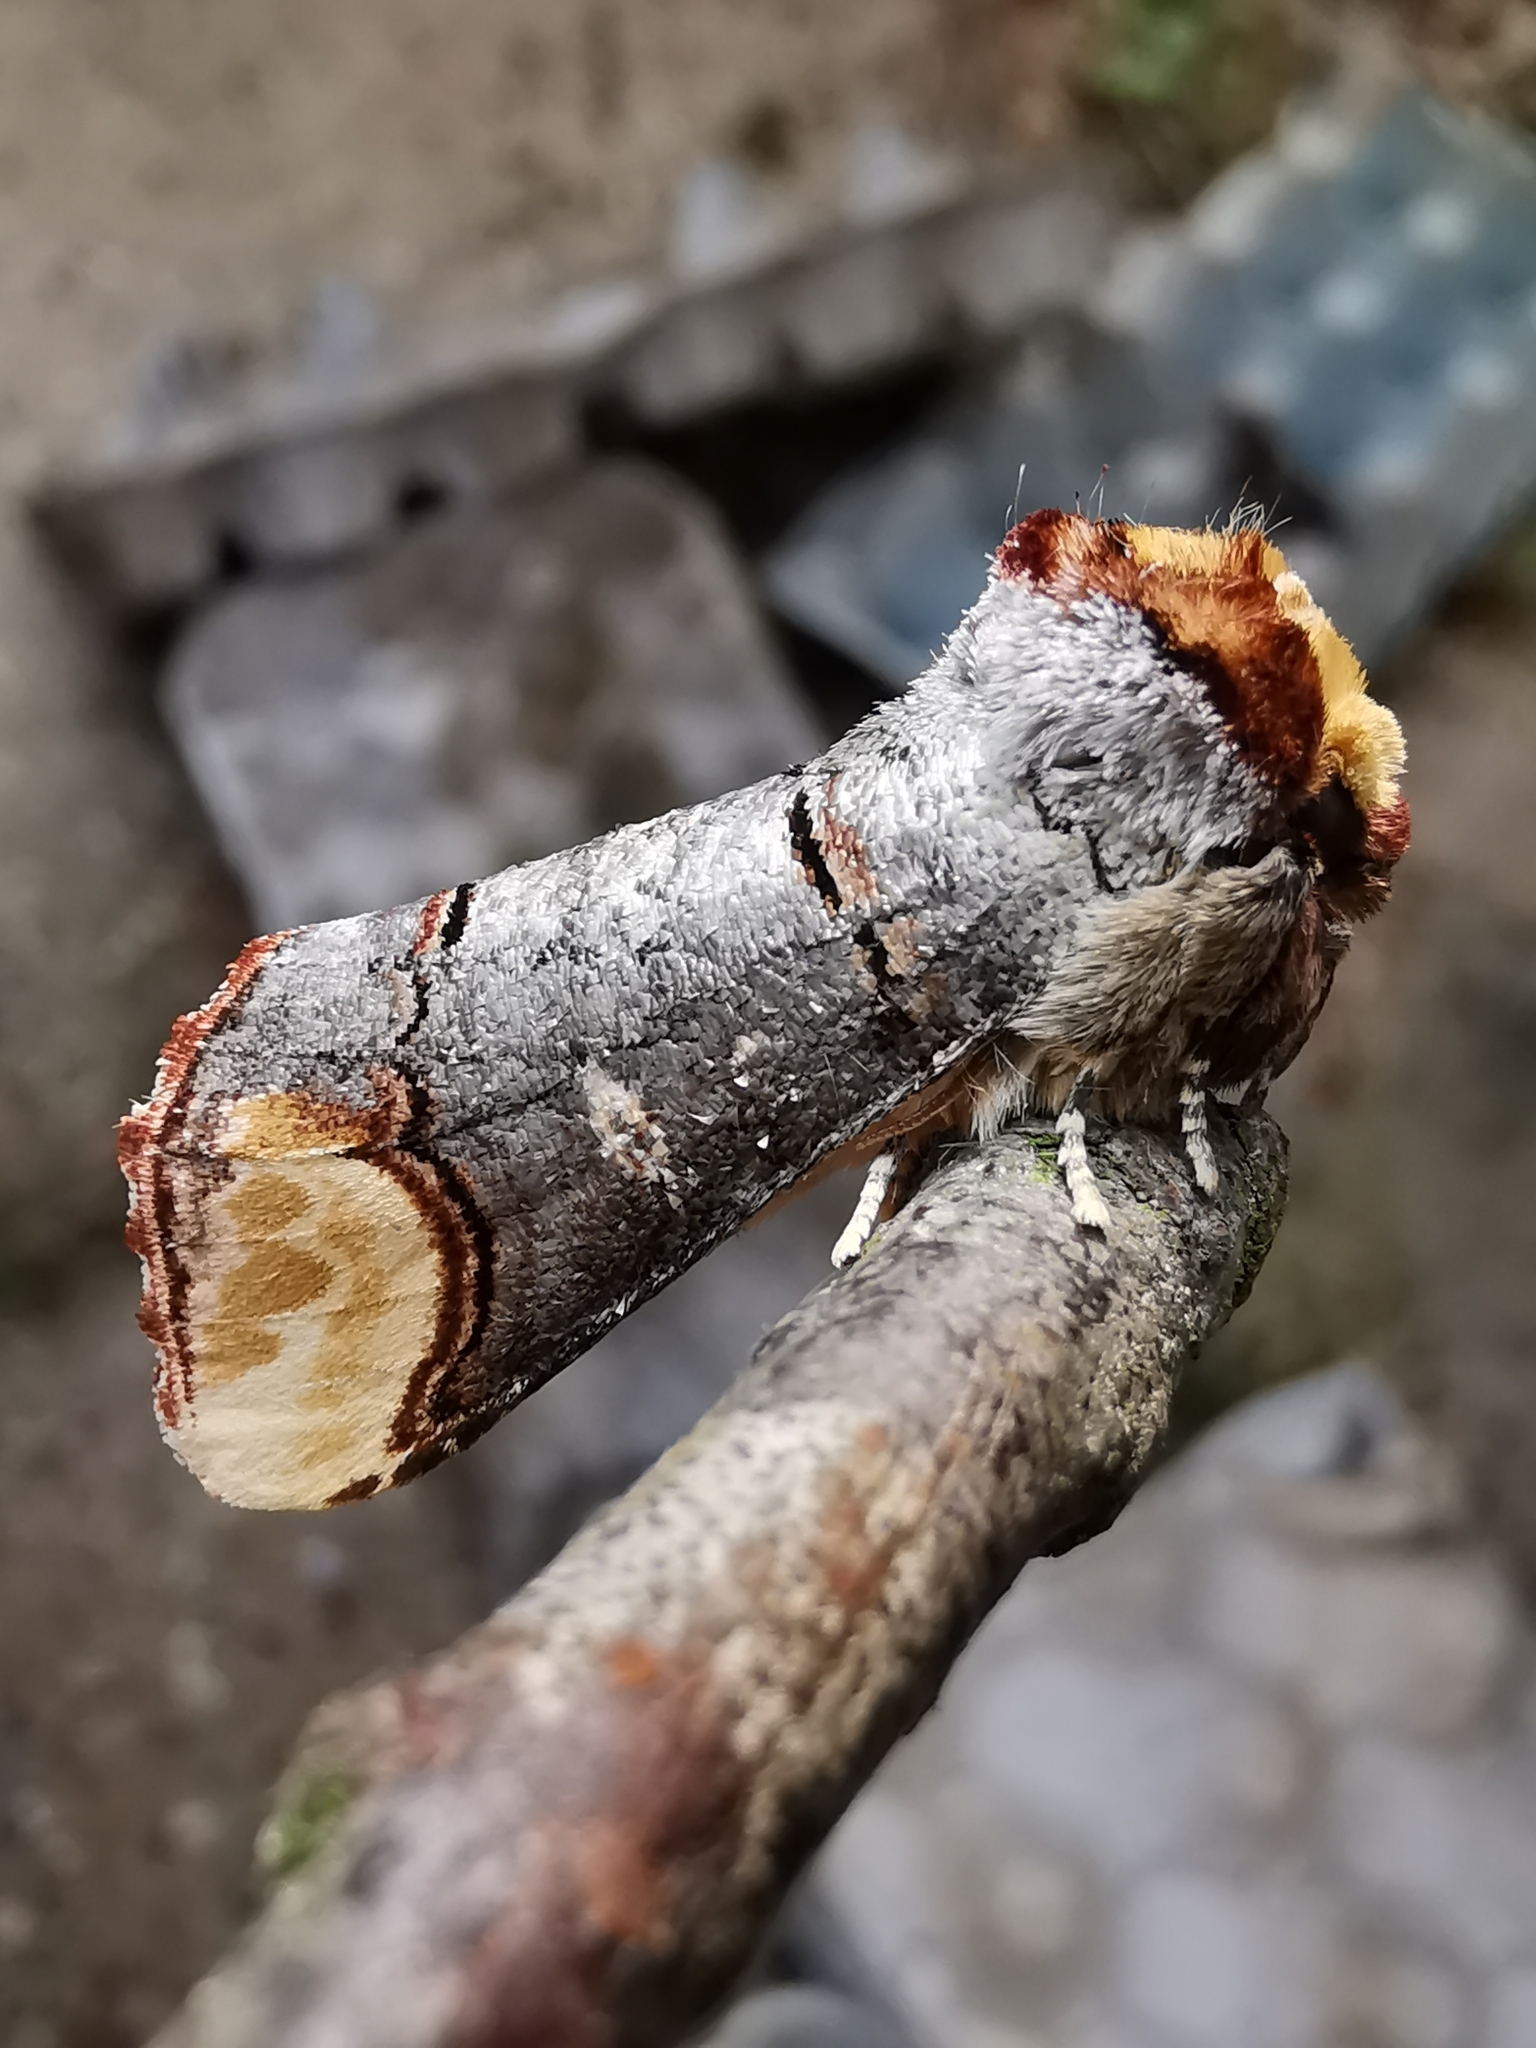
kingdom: Animalia
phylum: Arthropoda
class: Insecta
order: Lepidoptera
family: Notodontidae
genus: Phalera
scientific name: Phalera bucephala
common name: Buff-tip
